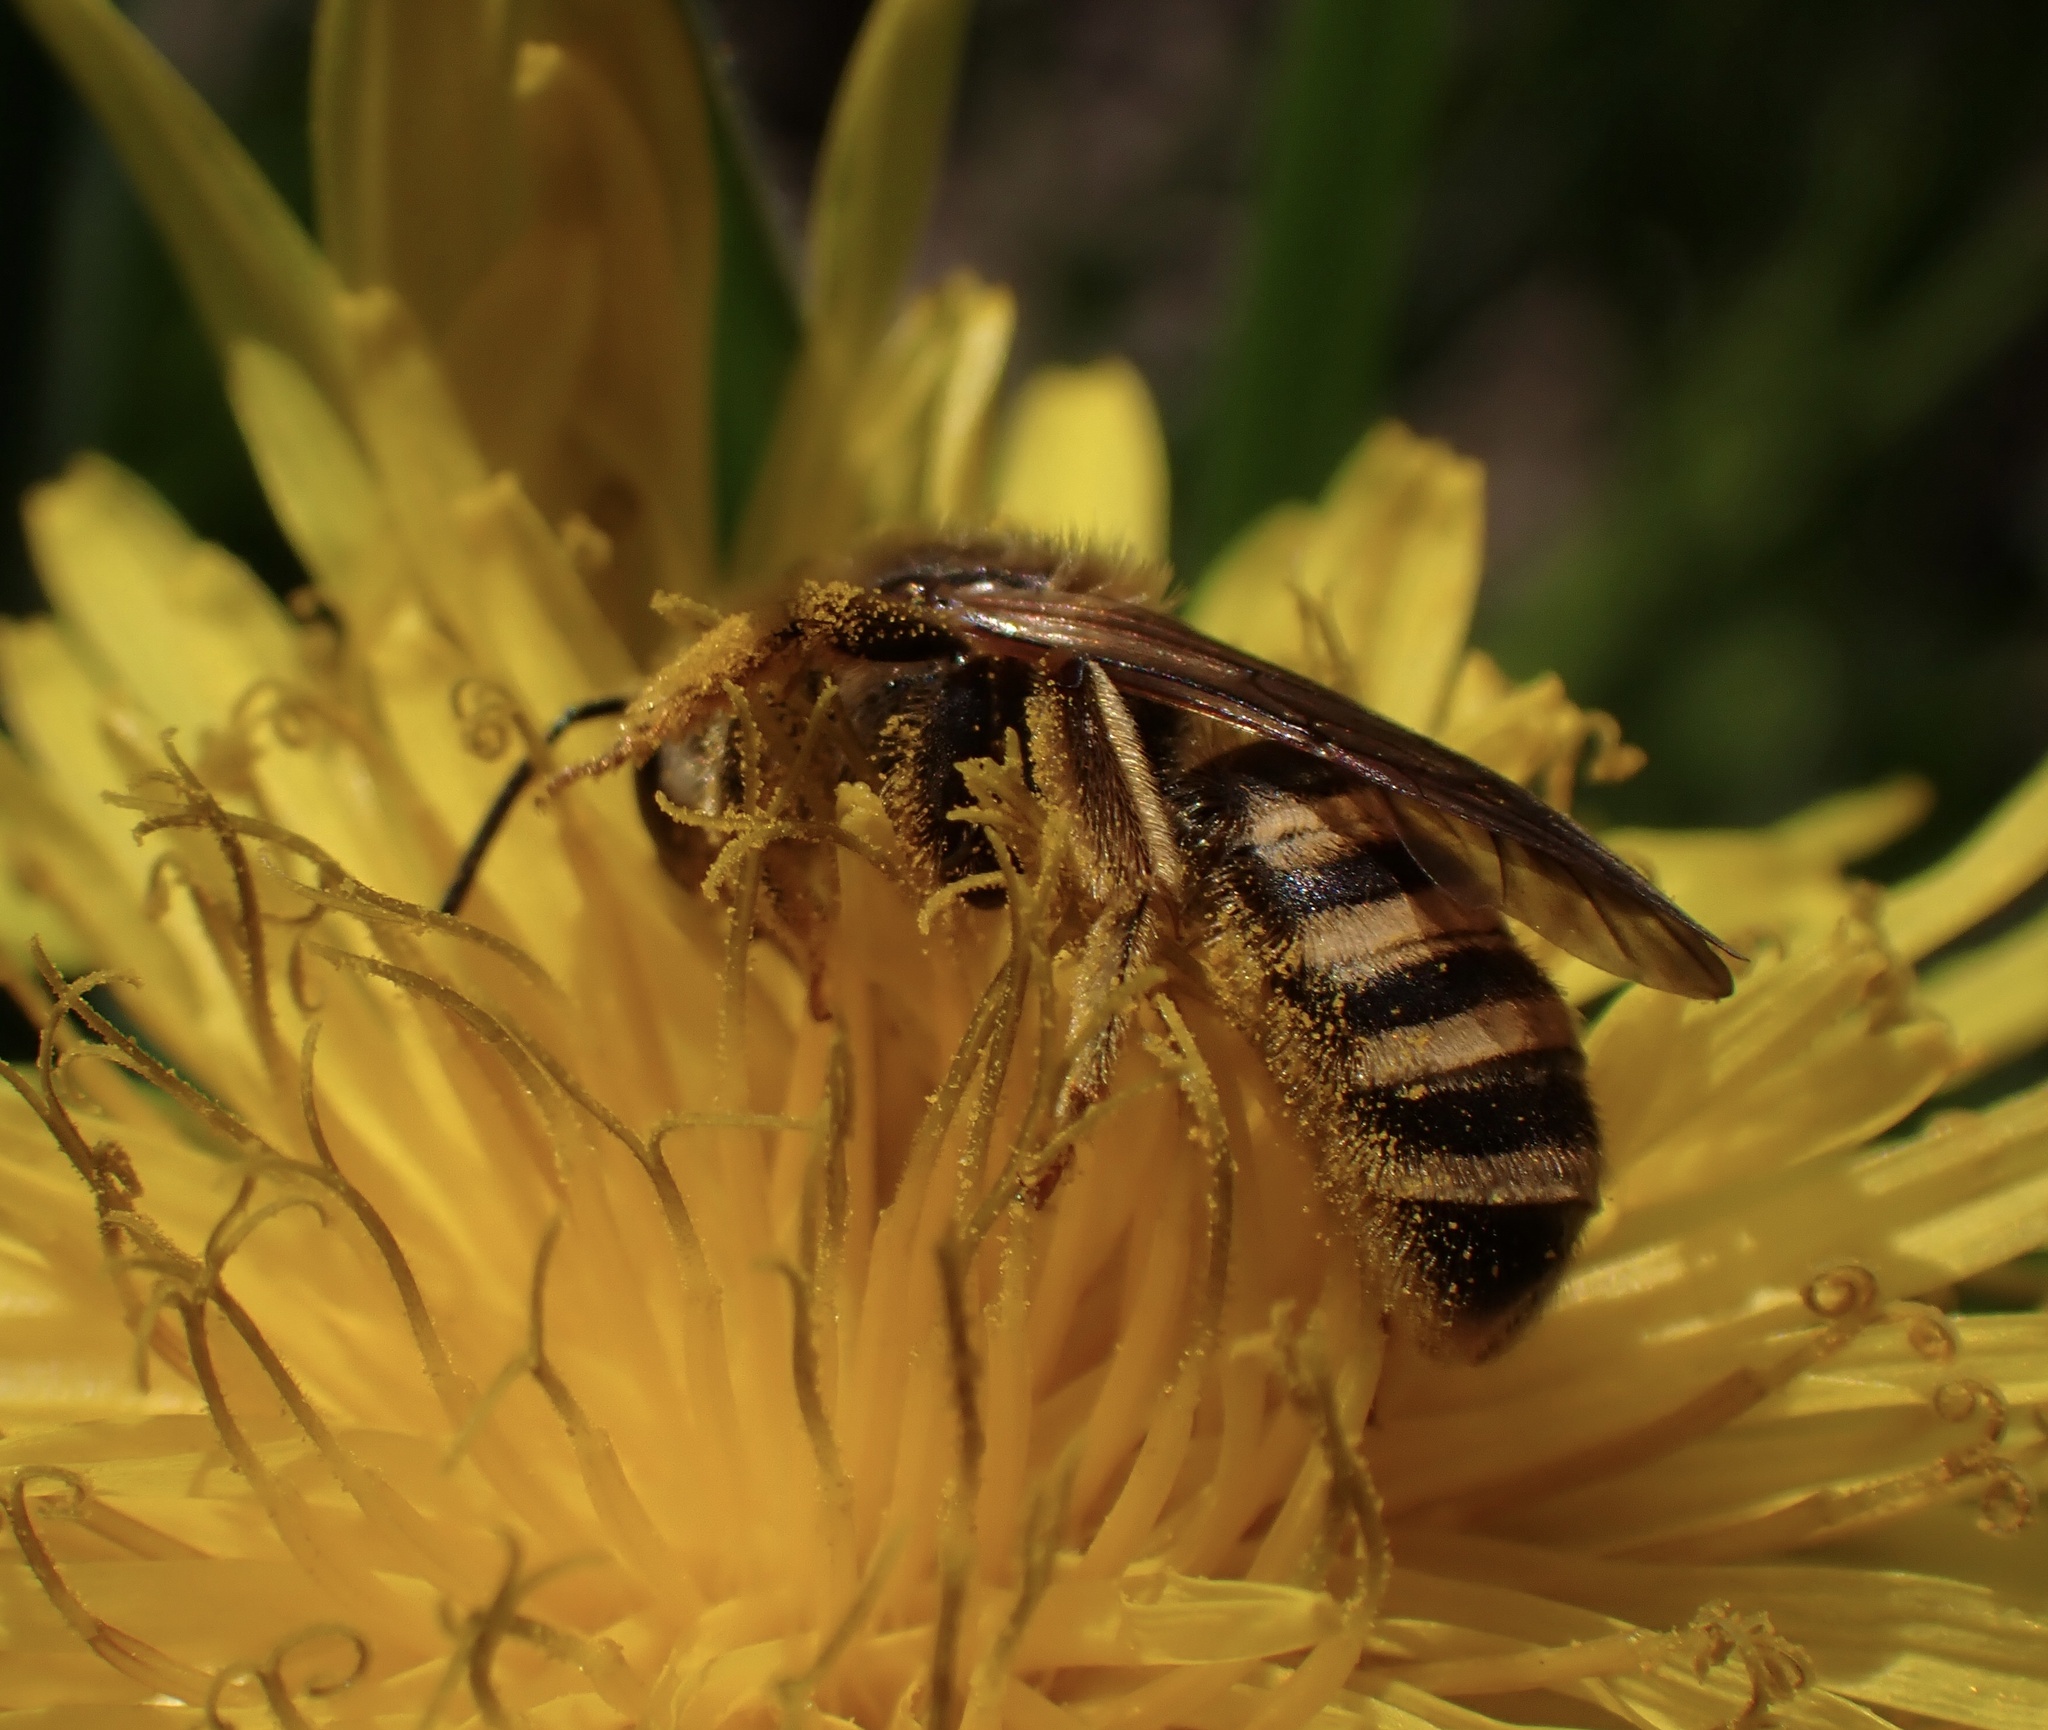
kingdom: Animalia
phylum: Arthropoda
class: Insecta
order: Hymenoptera
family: Halictidae
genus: Halictus
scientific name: Halictus scabiosae
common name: Great banded furrow bee
